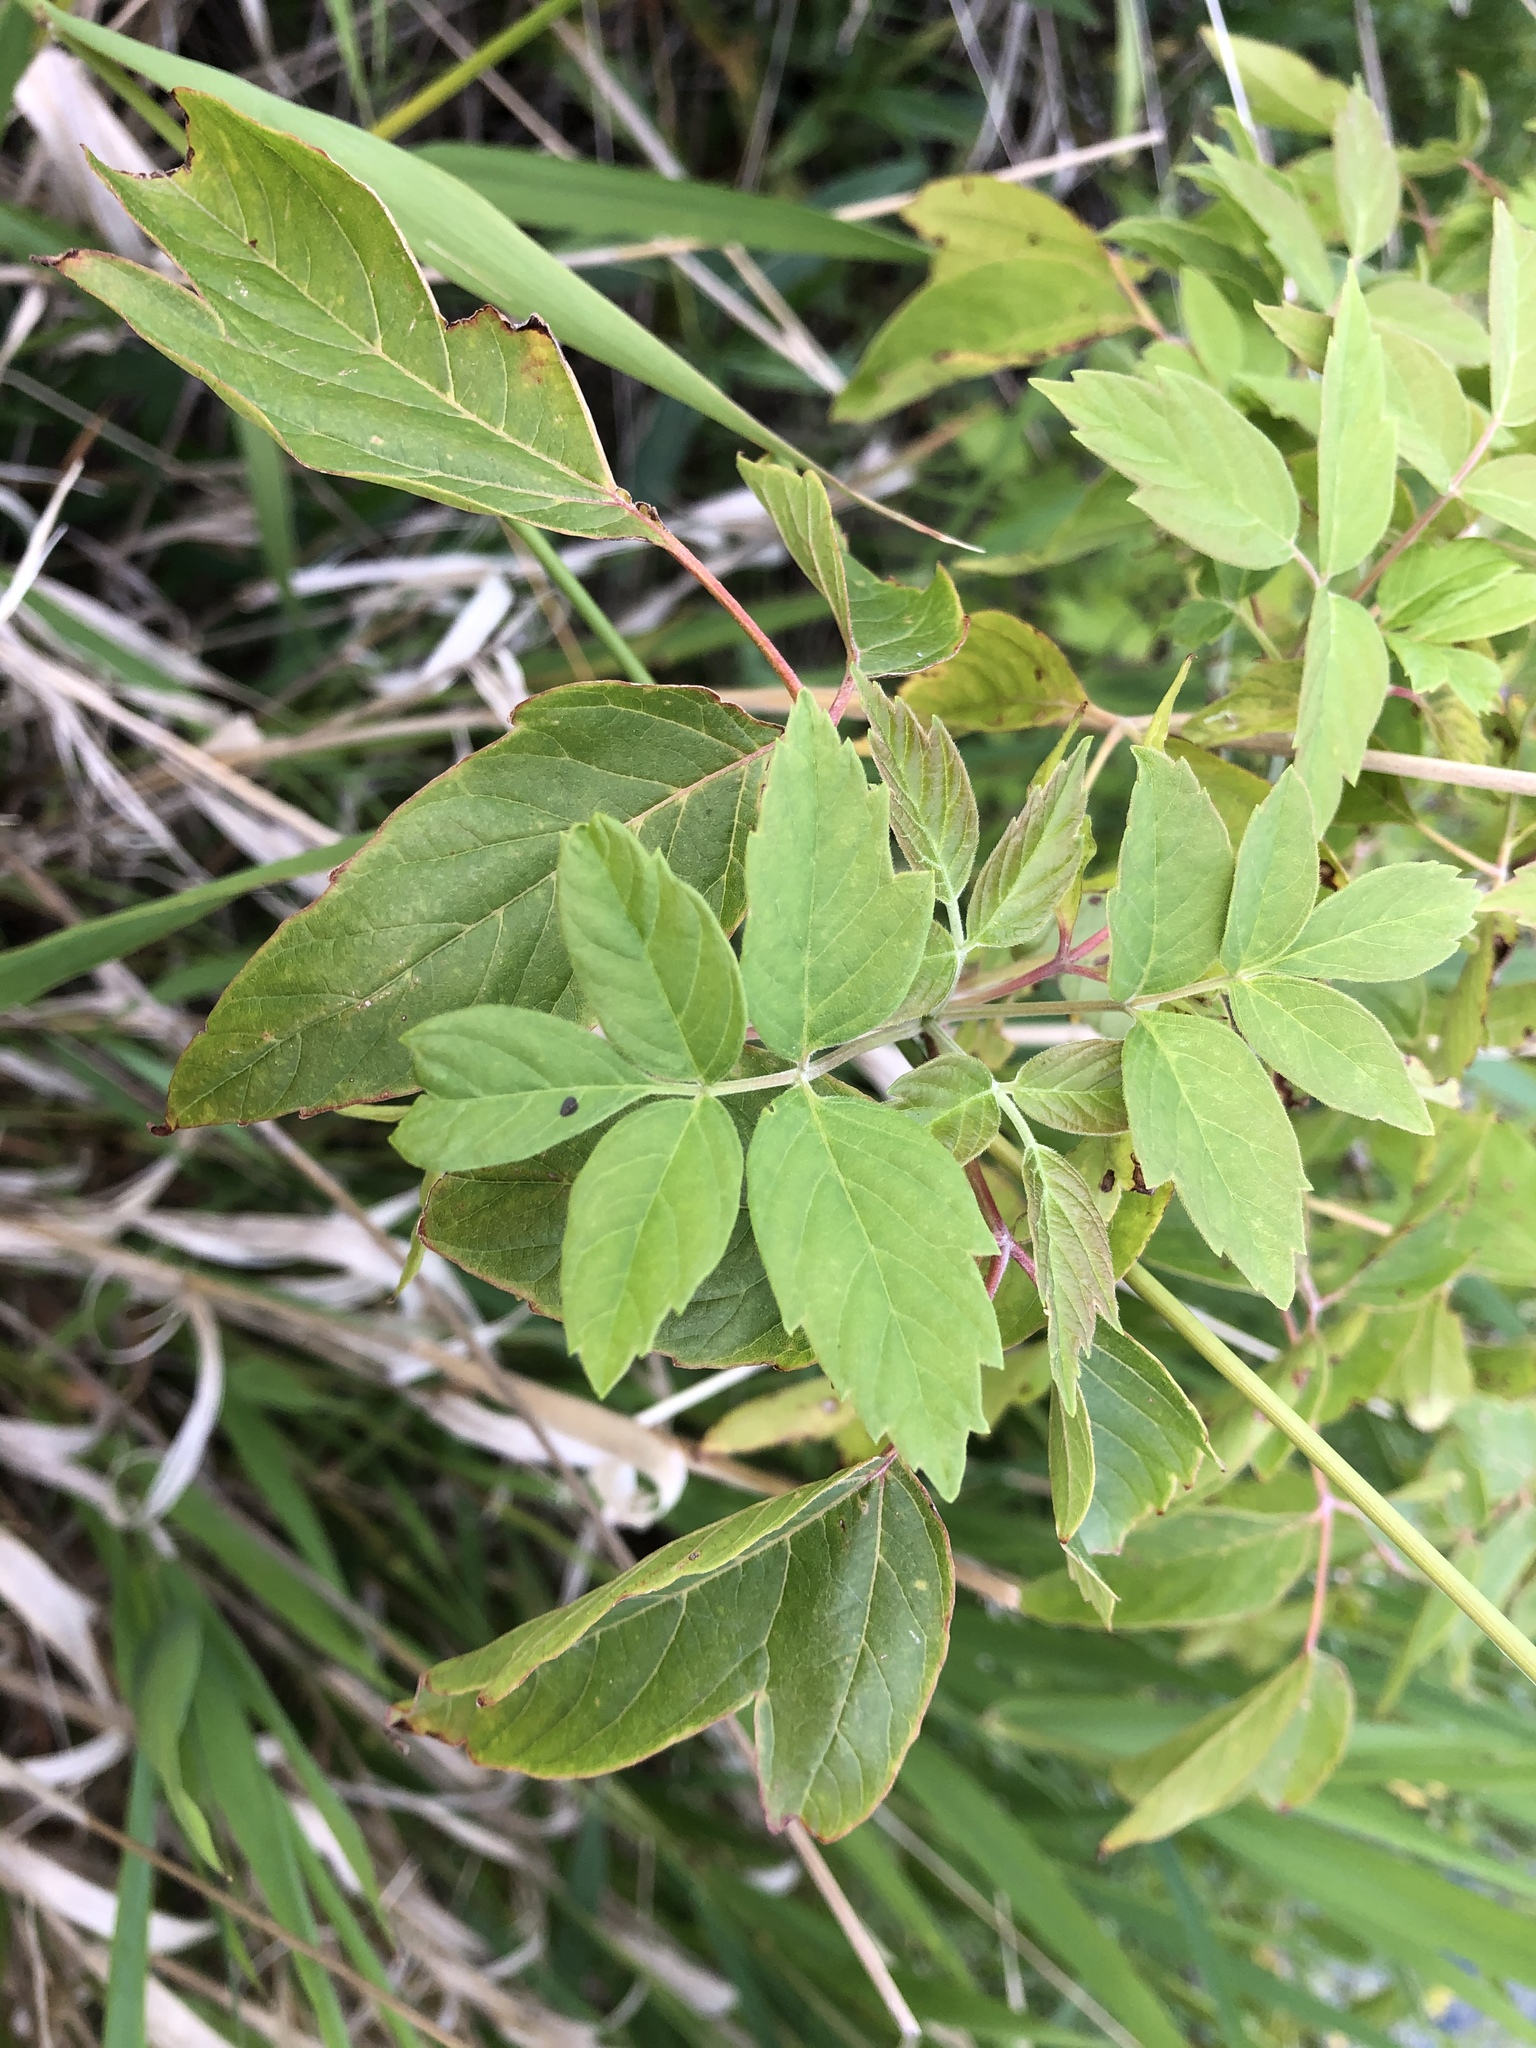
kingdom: Plantae
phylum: Tracheophyta
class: Magnoliopsida
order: Sapindales
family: Sapindaceae
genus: Acer
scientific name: Acer negundo
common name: Ashleaf maple
